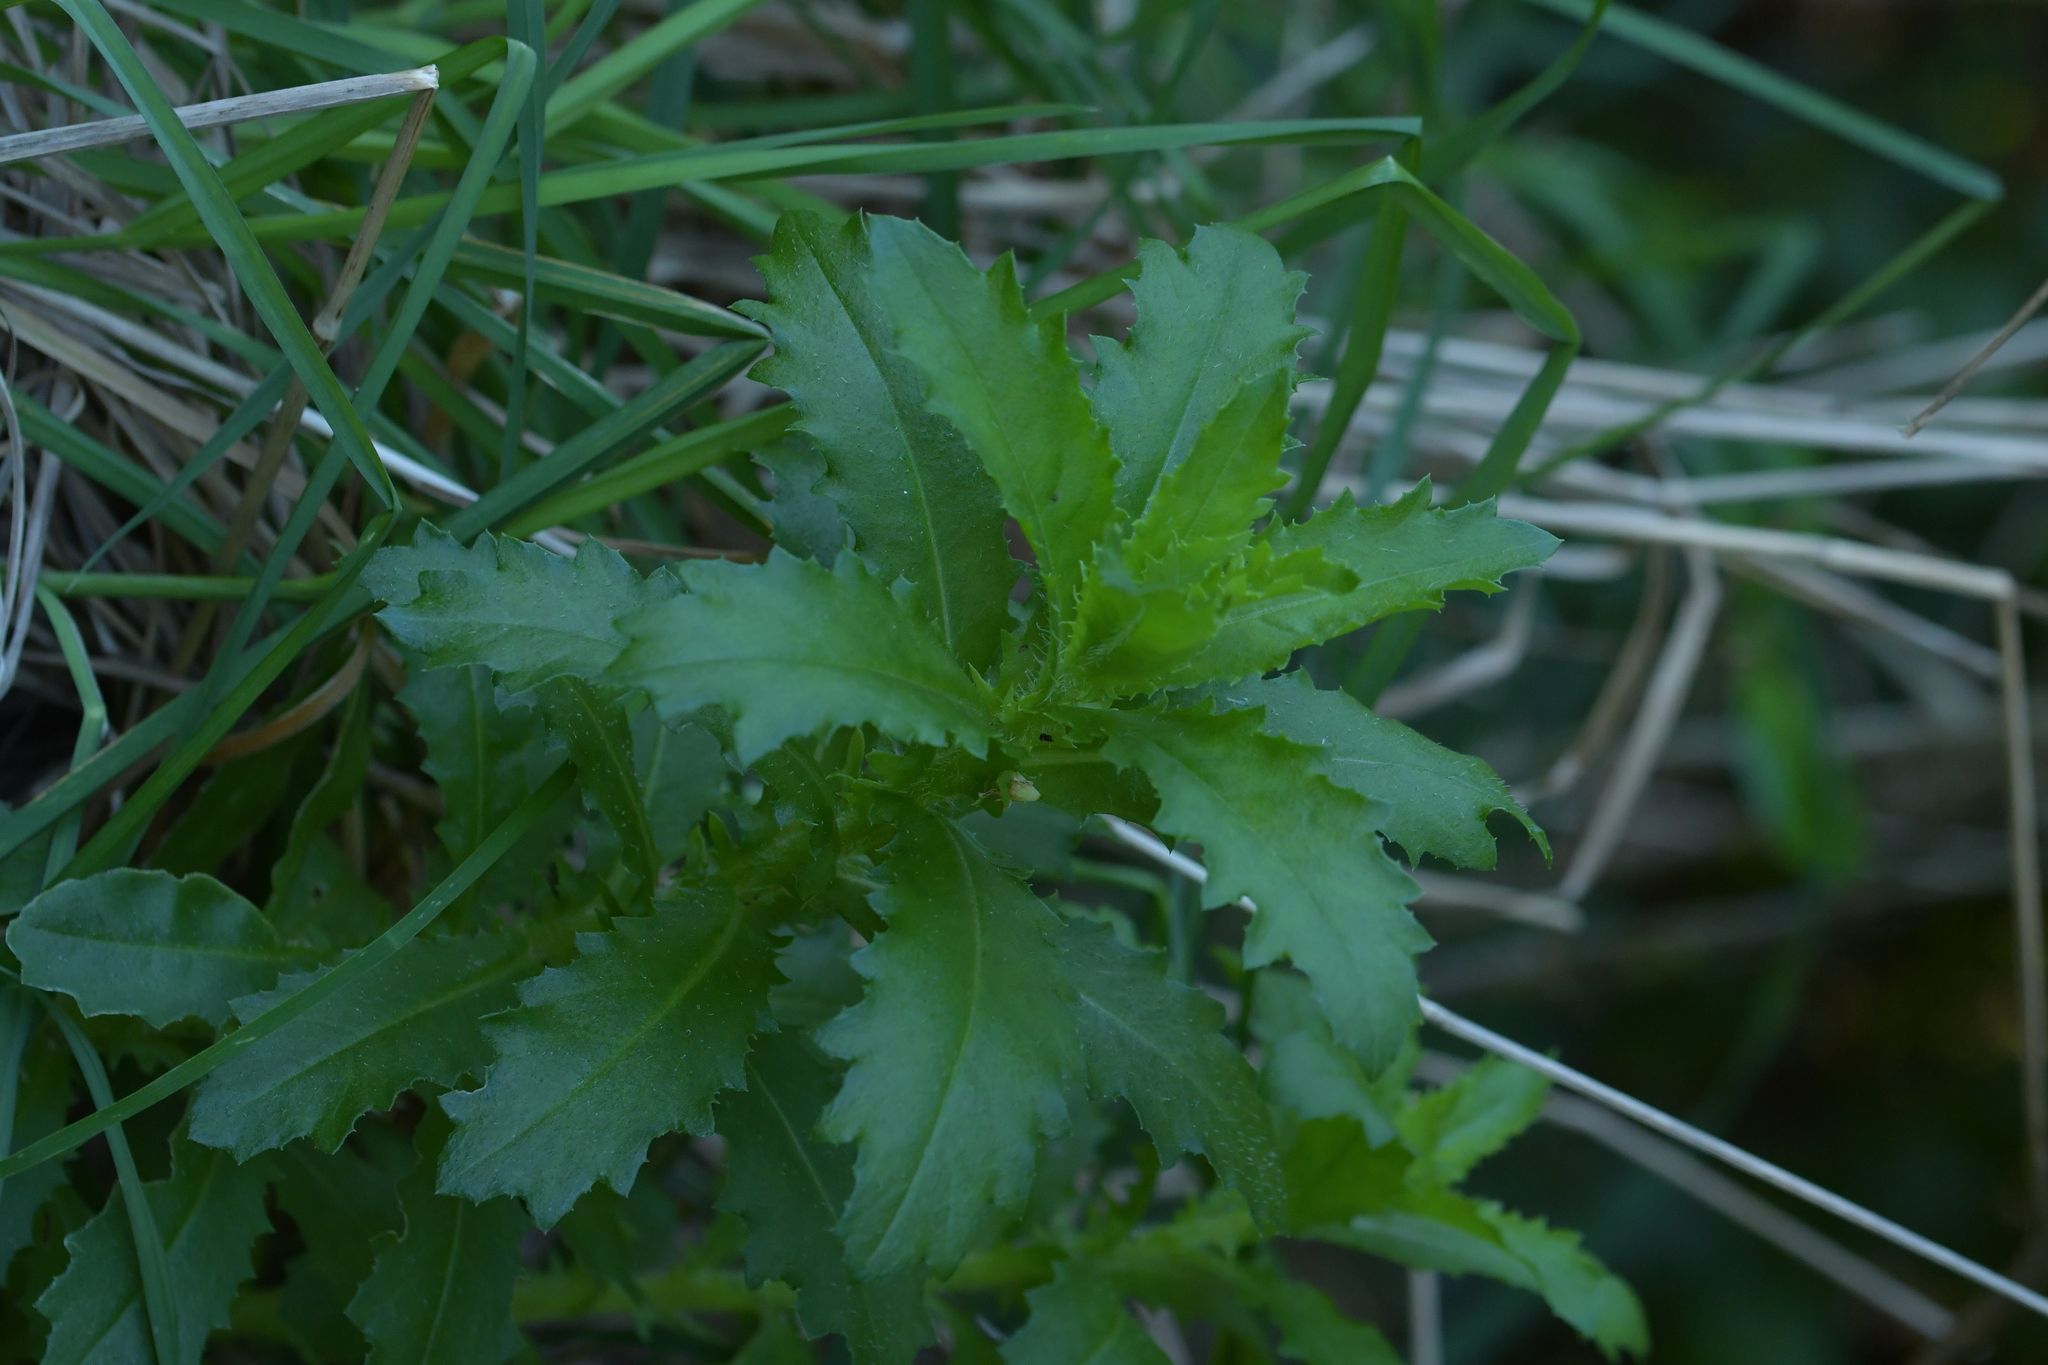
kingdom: Plantae
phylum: Tracheophyta
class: Magnoliopsida
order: Asterales
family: Asteraceae
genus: Senecio
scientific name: Senecio biserratus
